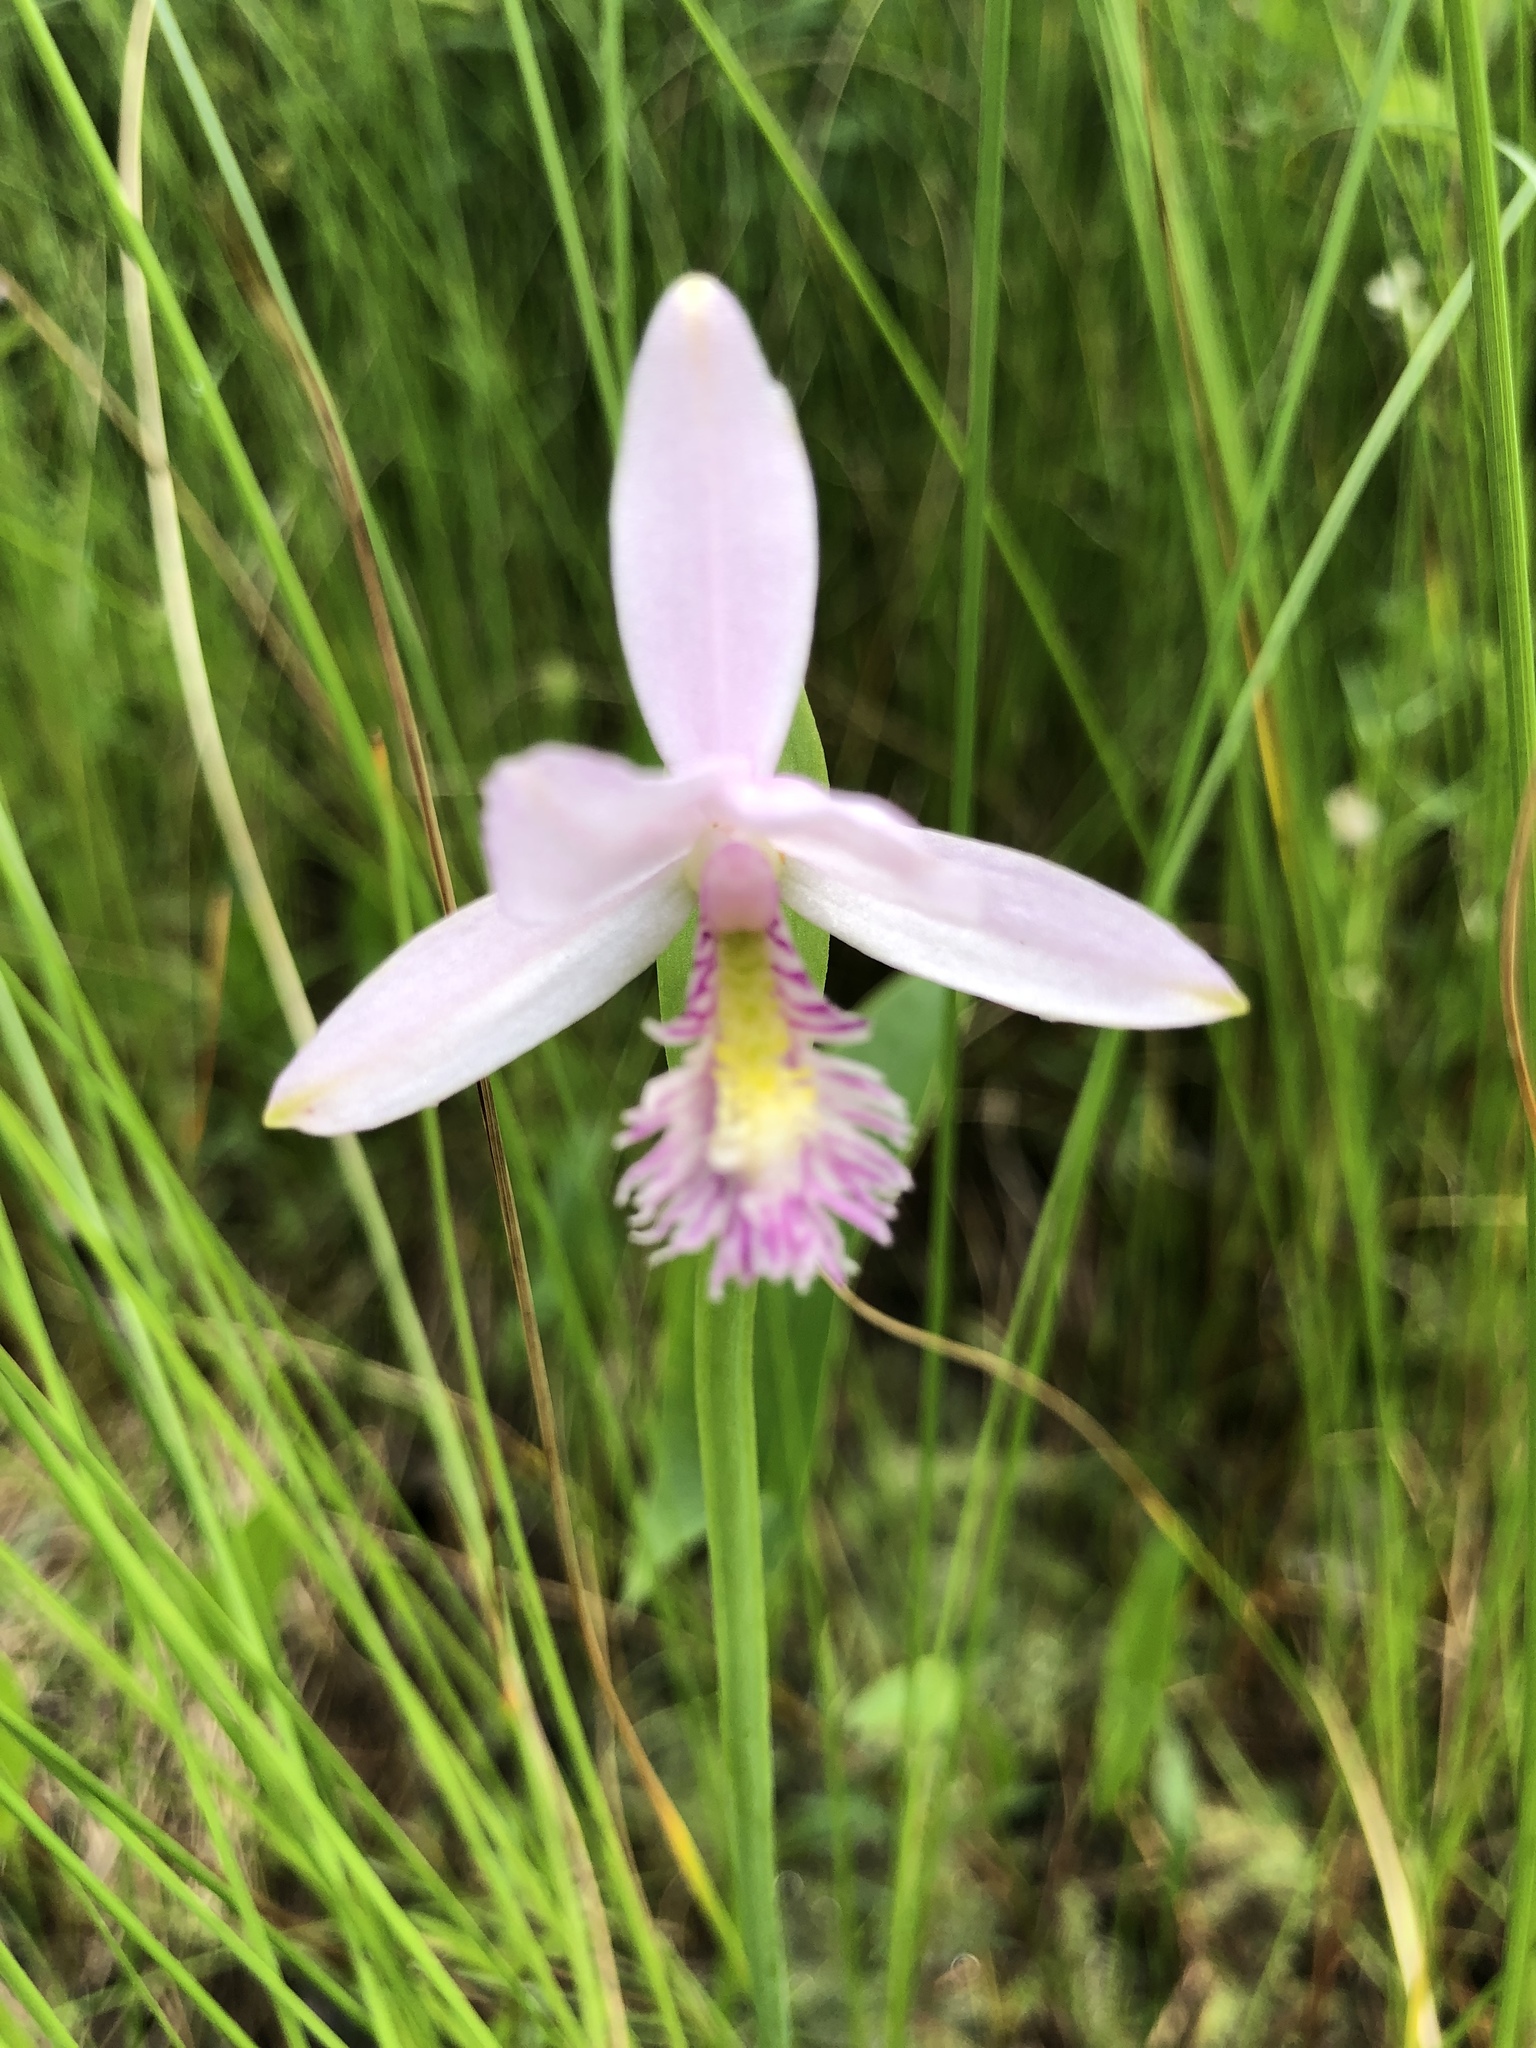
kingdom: Plantae
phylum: Tracheophyta
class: Liliopsida
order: Asparagales
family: Orchidaceae
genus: Pogonia
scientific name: Pogonia ophioglossoides
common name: Rose pogonia
